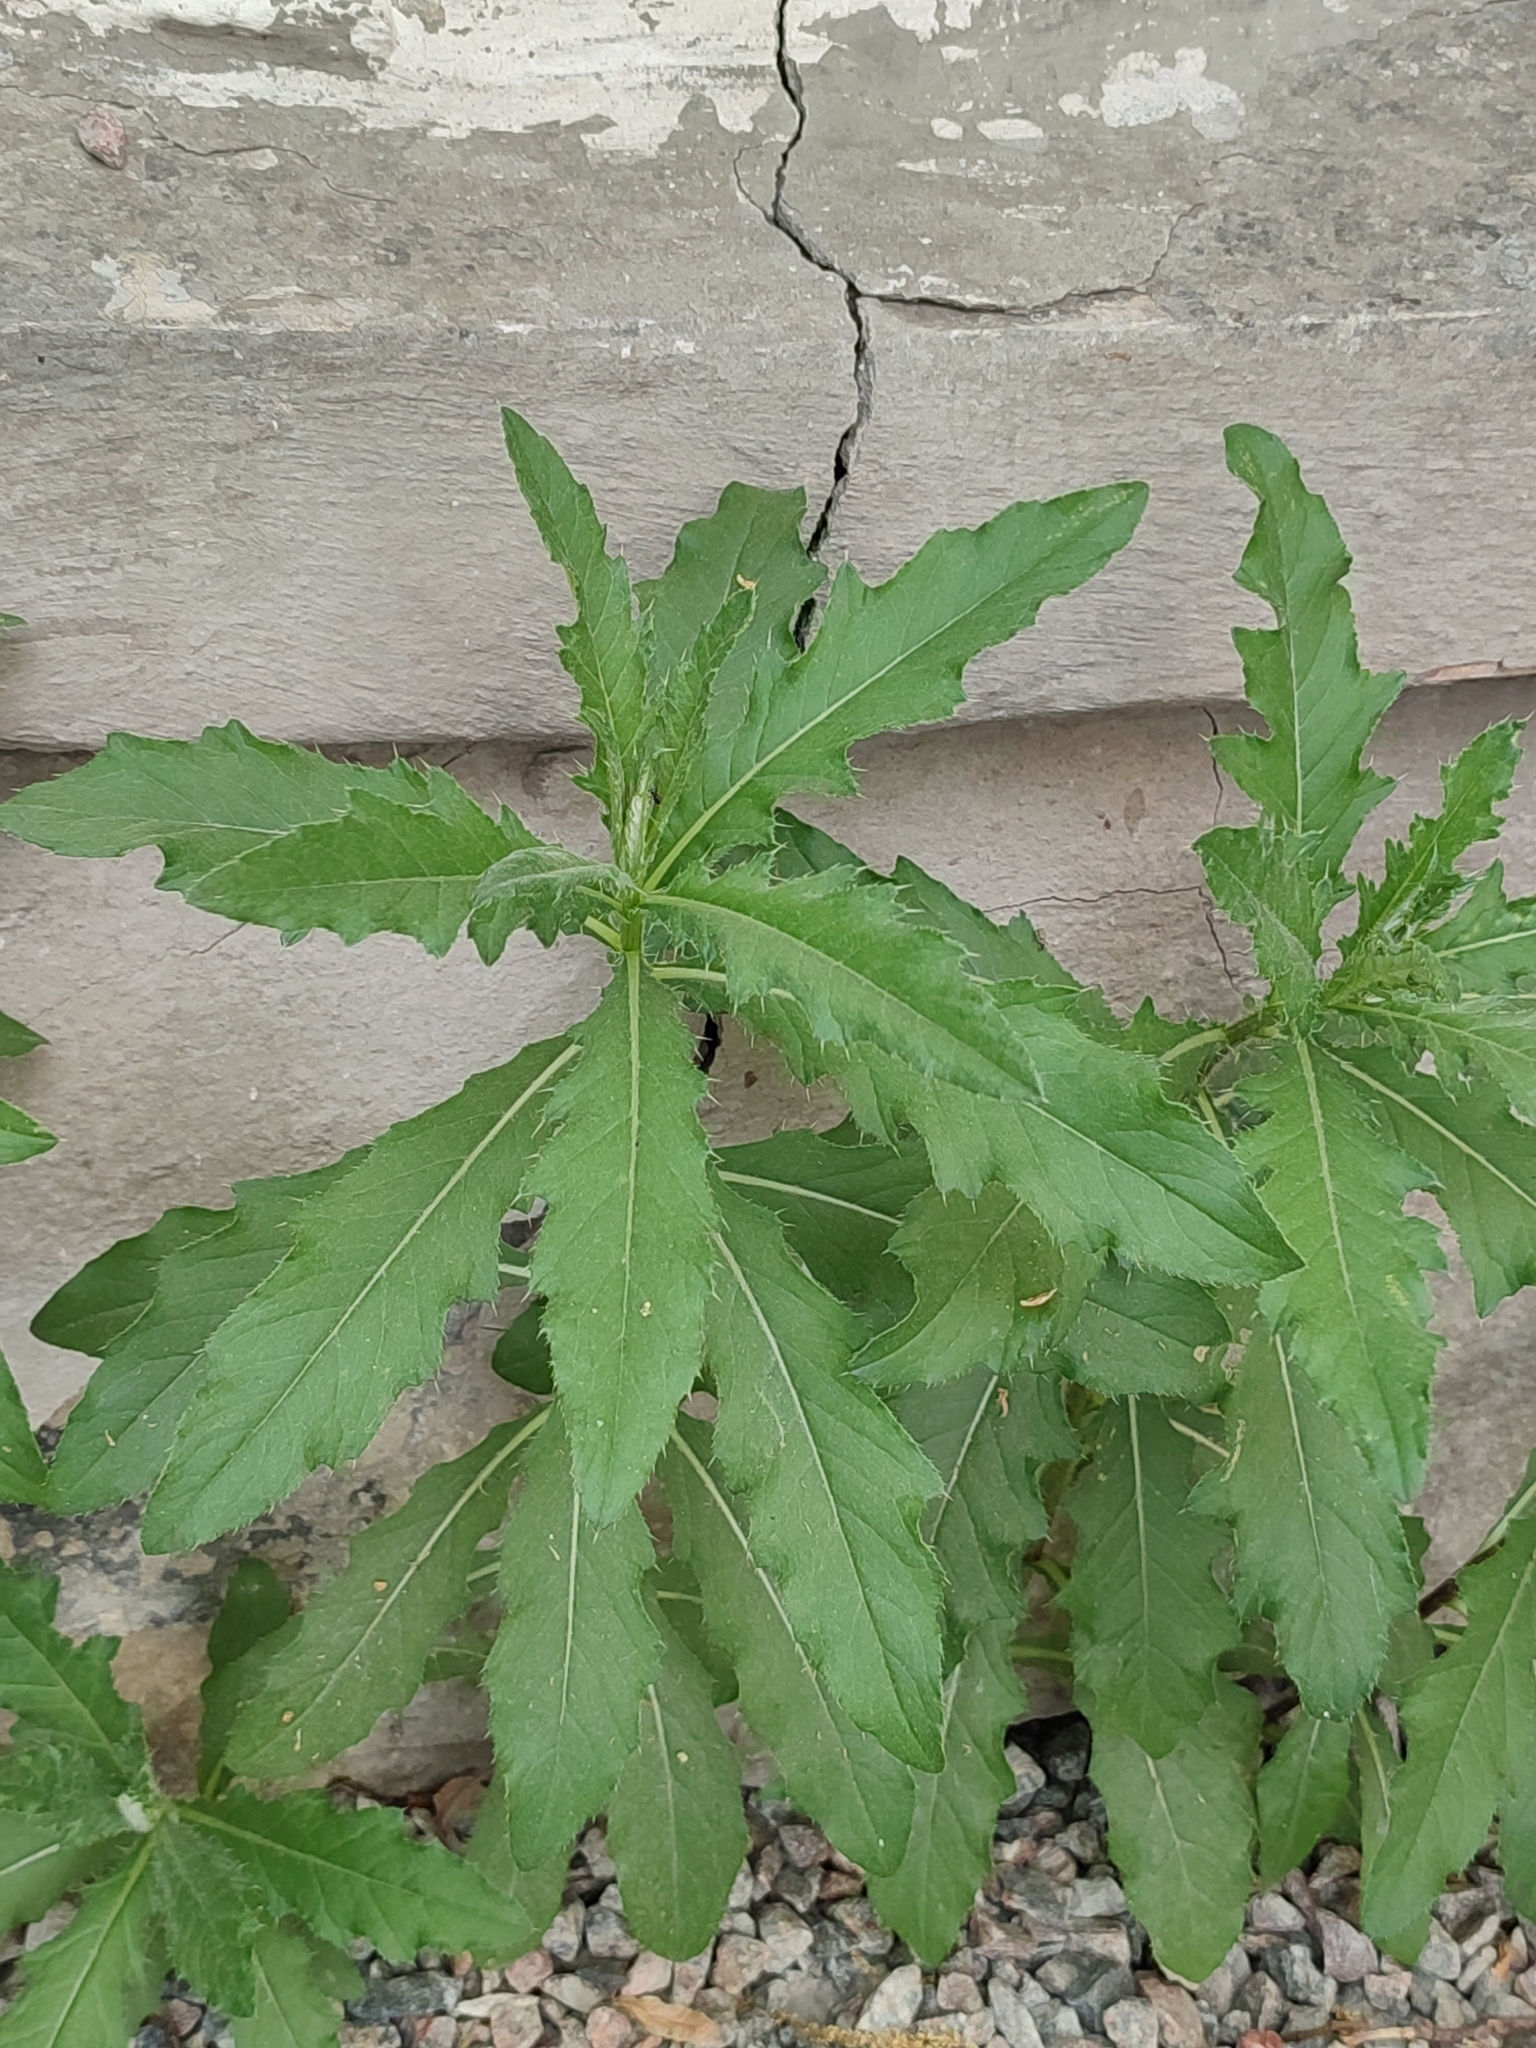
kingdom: Plantae
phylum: Tracheophyta
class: Magnoliopsida
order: Asterales
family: Asteraceae
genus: Cirsium
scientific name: Cirsium arvense
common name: Creeping thistle
